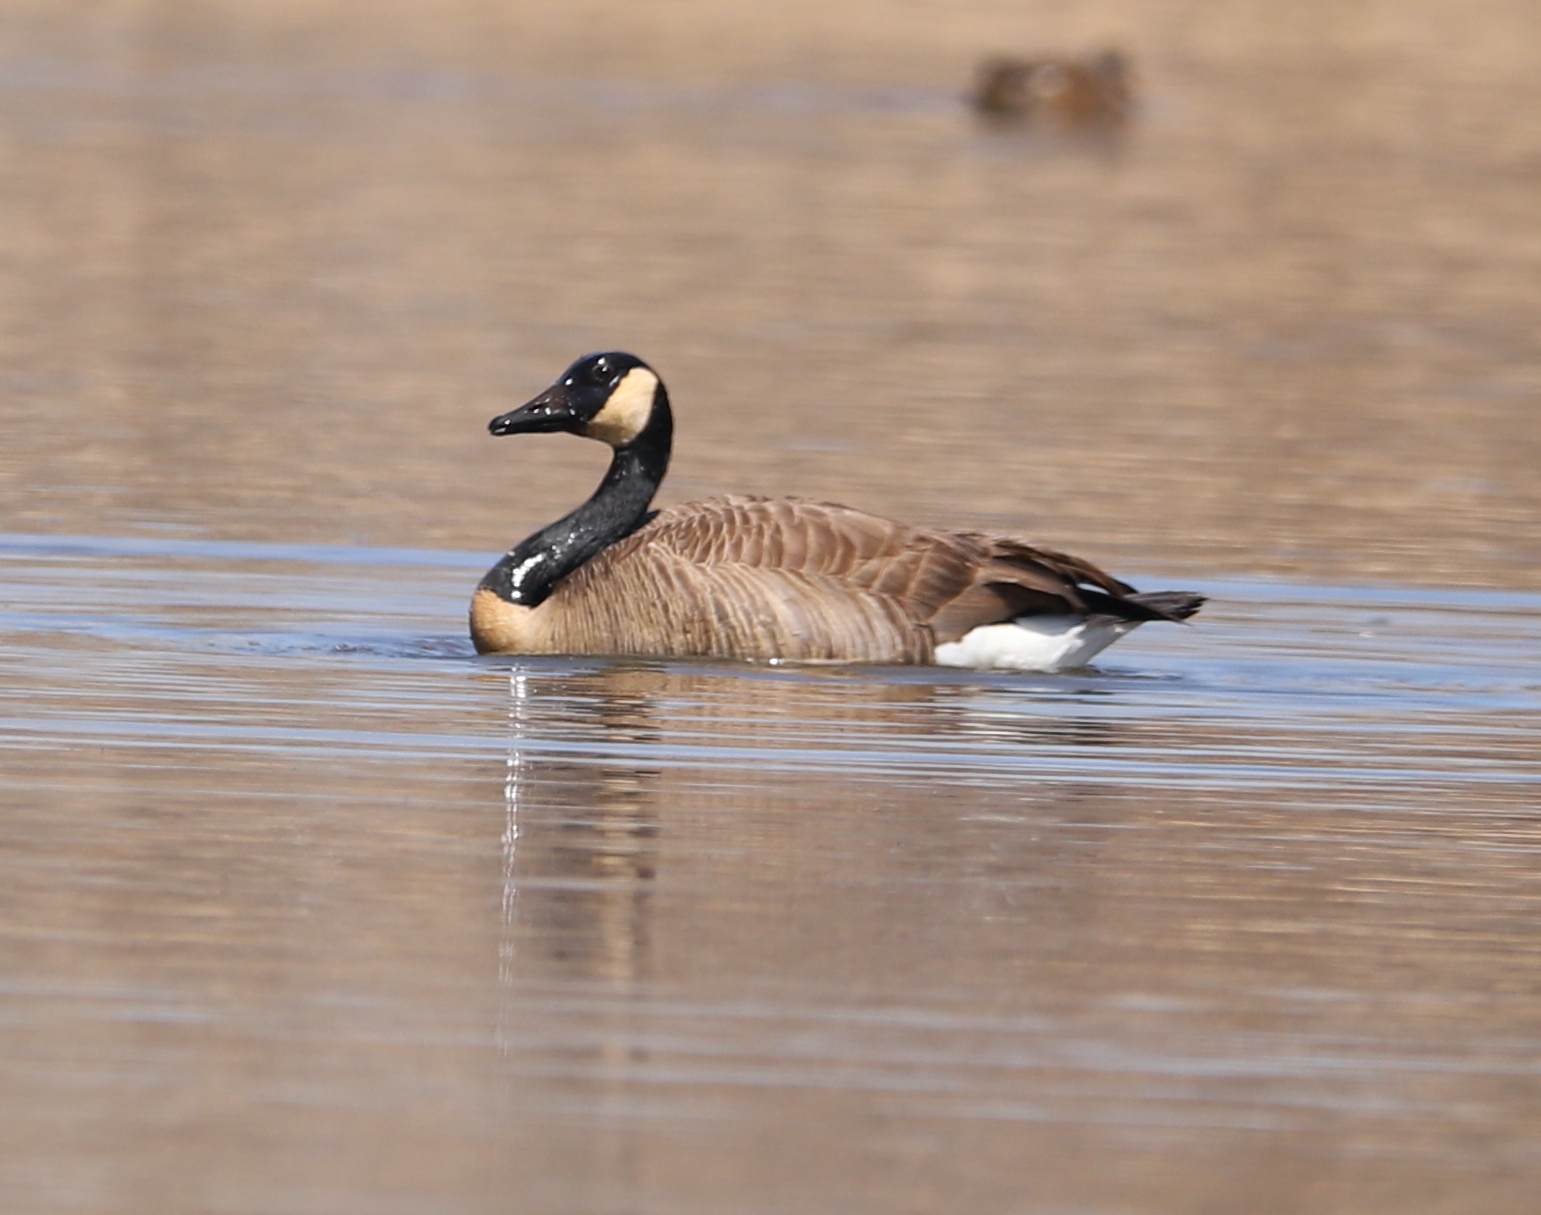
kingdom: Animalia
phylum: Chordata
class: Aves
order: Anseriformes
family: Anatidae
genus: Branta
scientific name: Branta canadensis
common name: Canada goose
